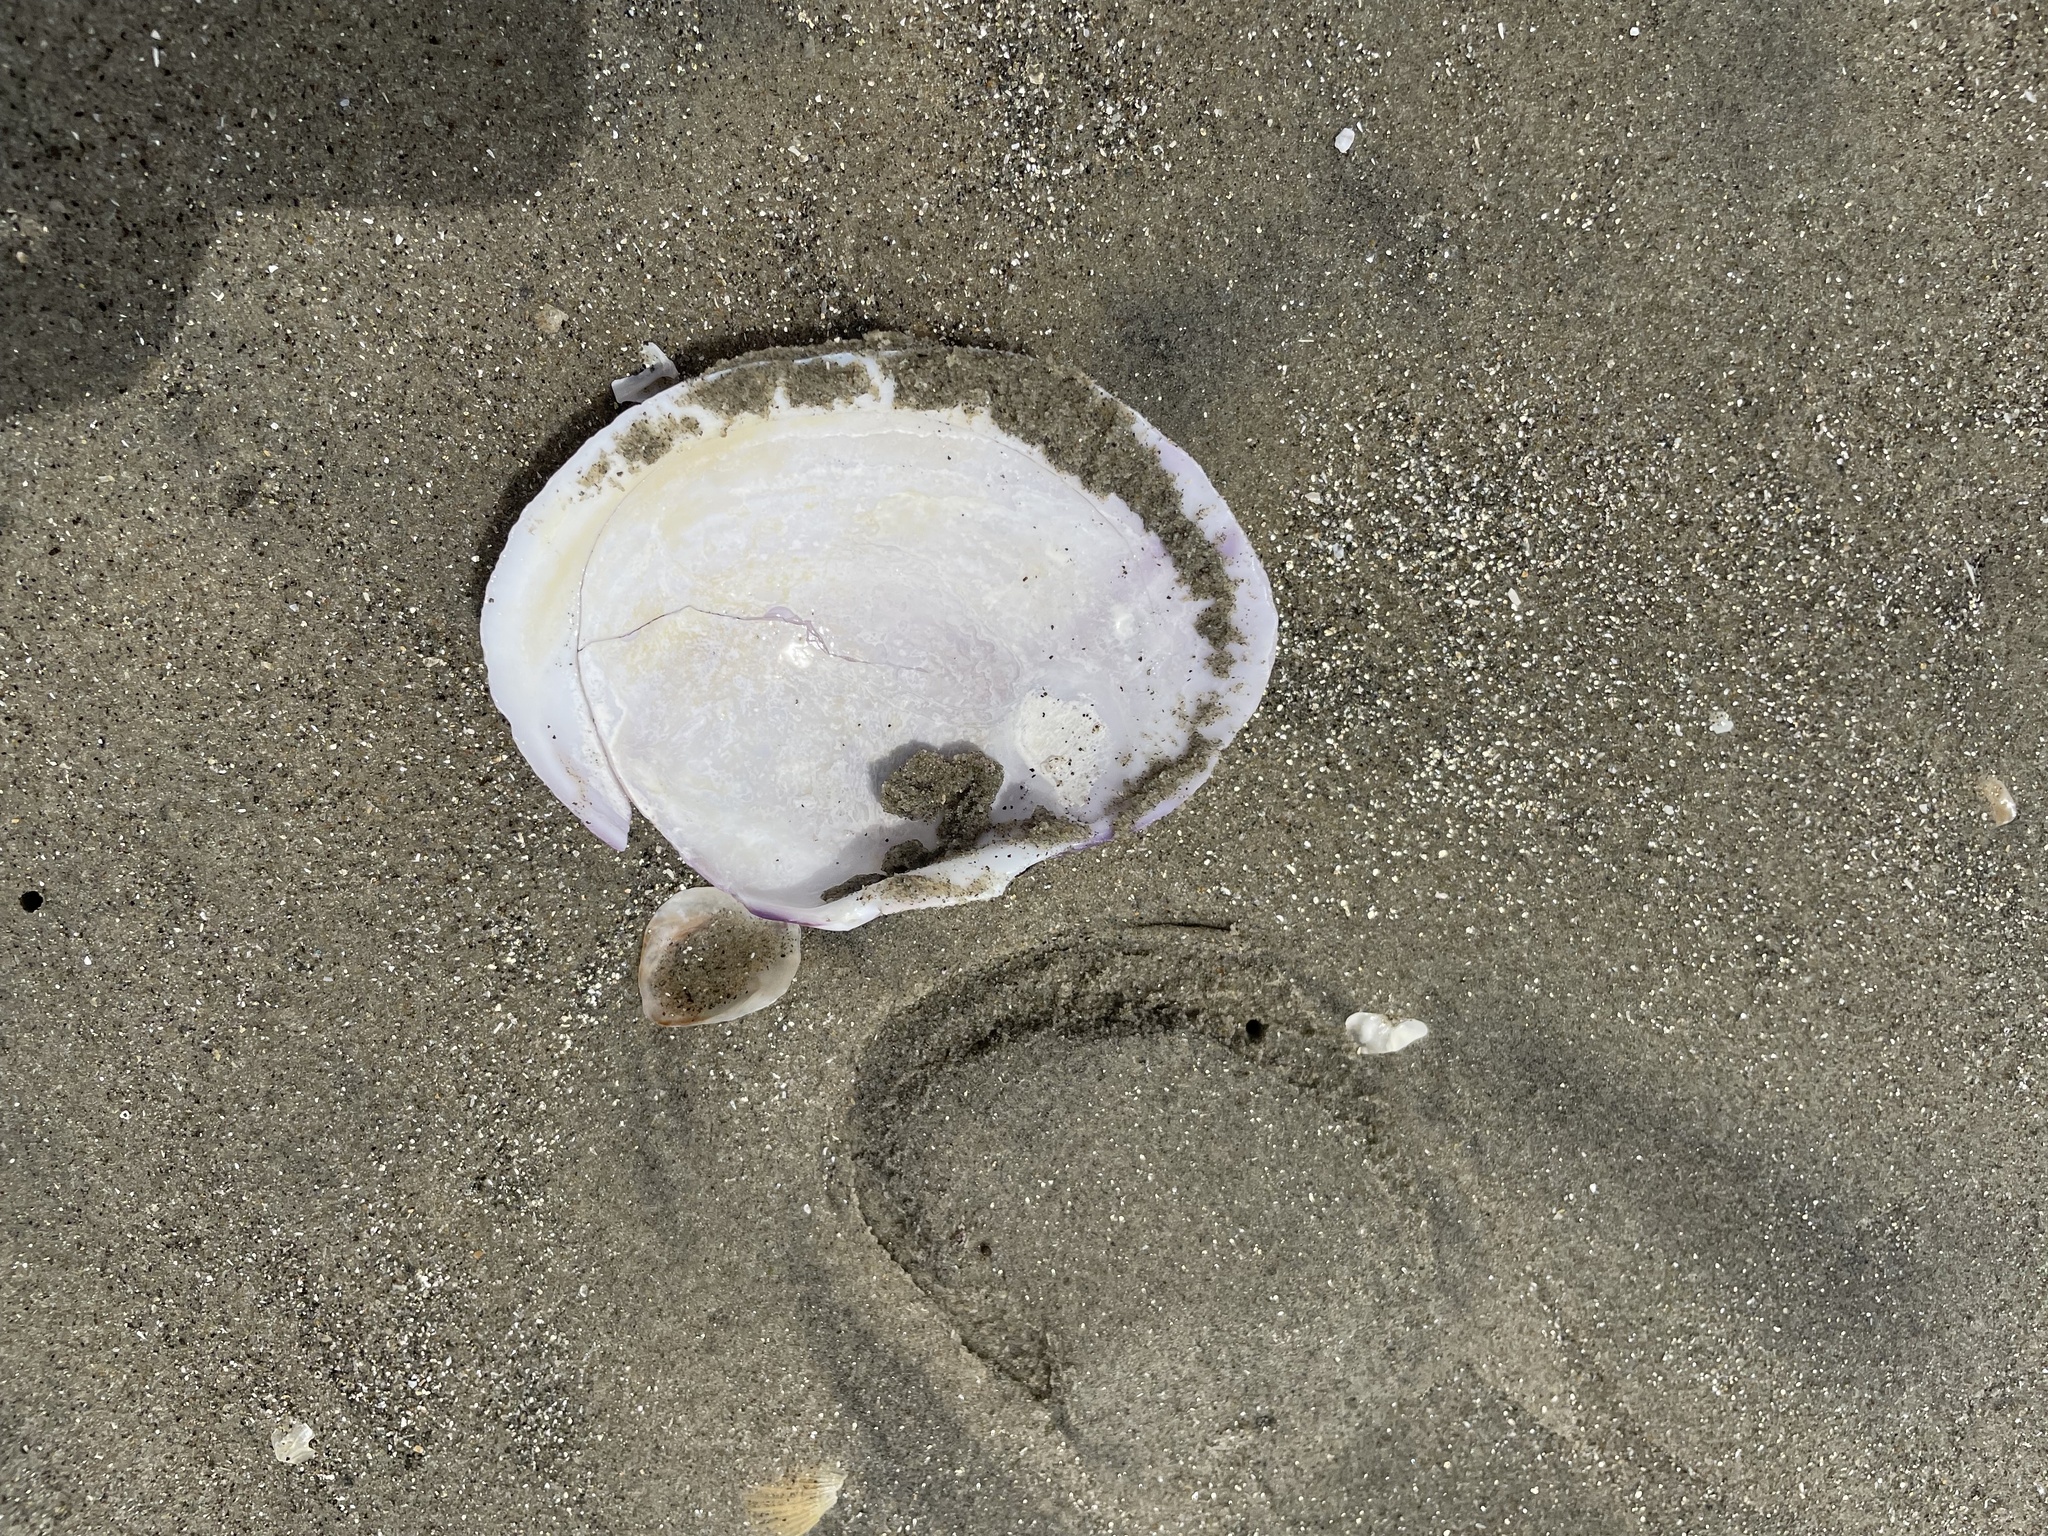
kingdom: Animalia
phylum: Mollusca
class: Bivalvia
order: Cardiida
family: Psammobiidae
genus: Nuttallia
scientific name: Nuttallia nuttallii
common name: California mahogany-clam
